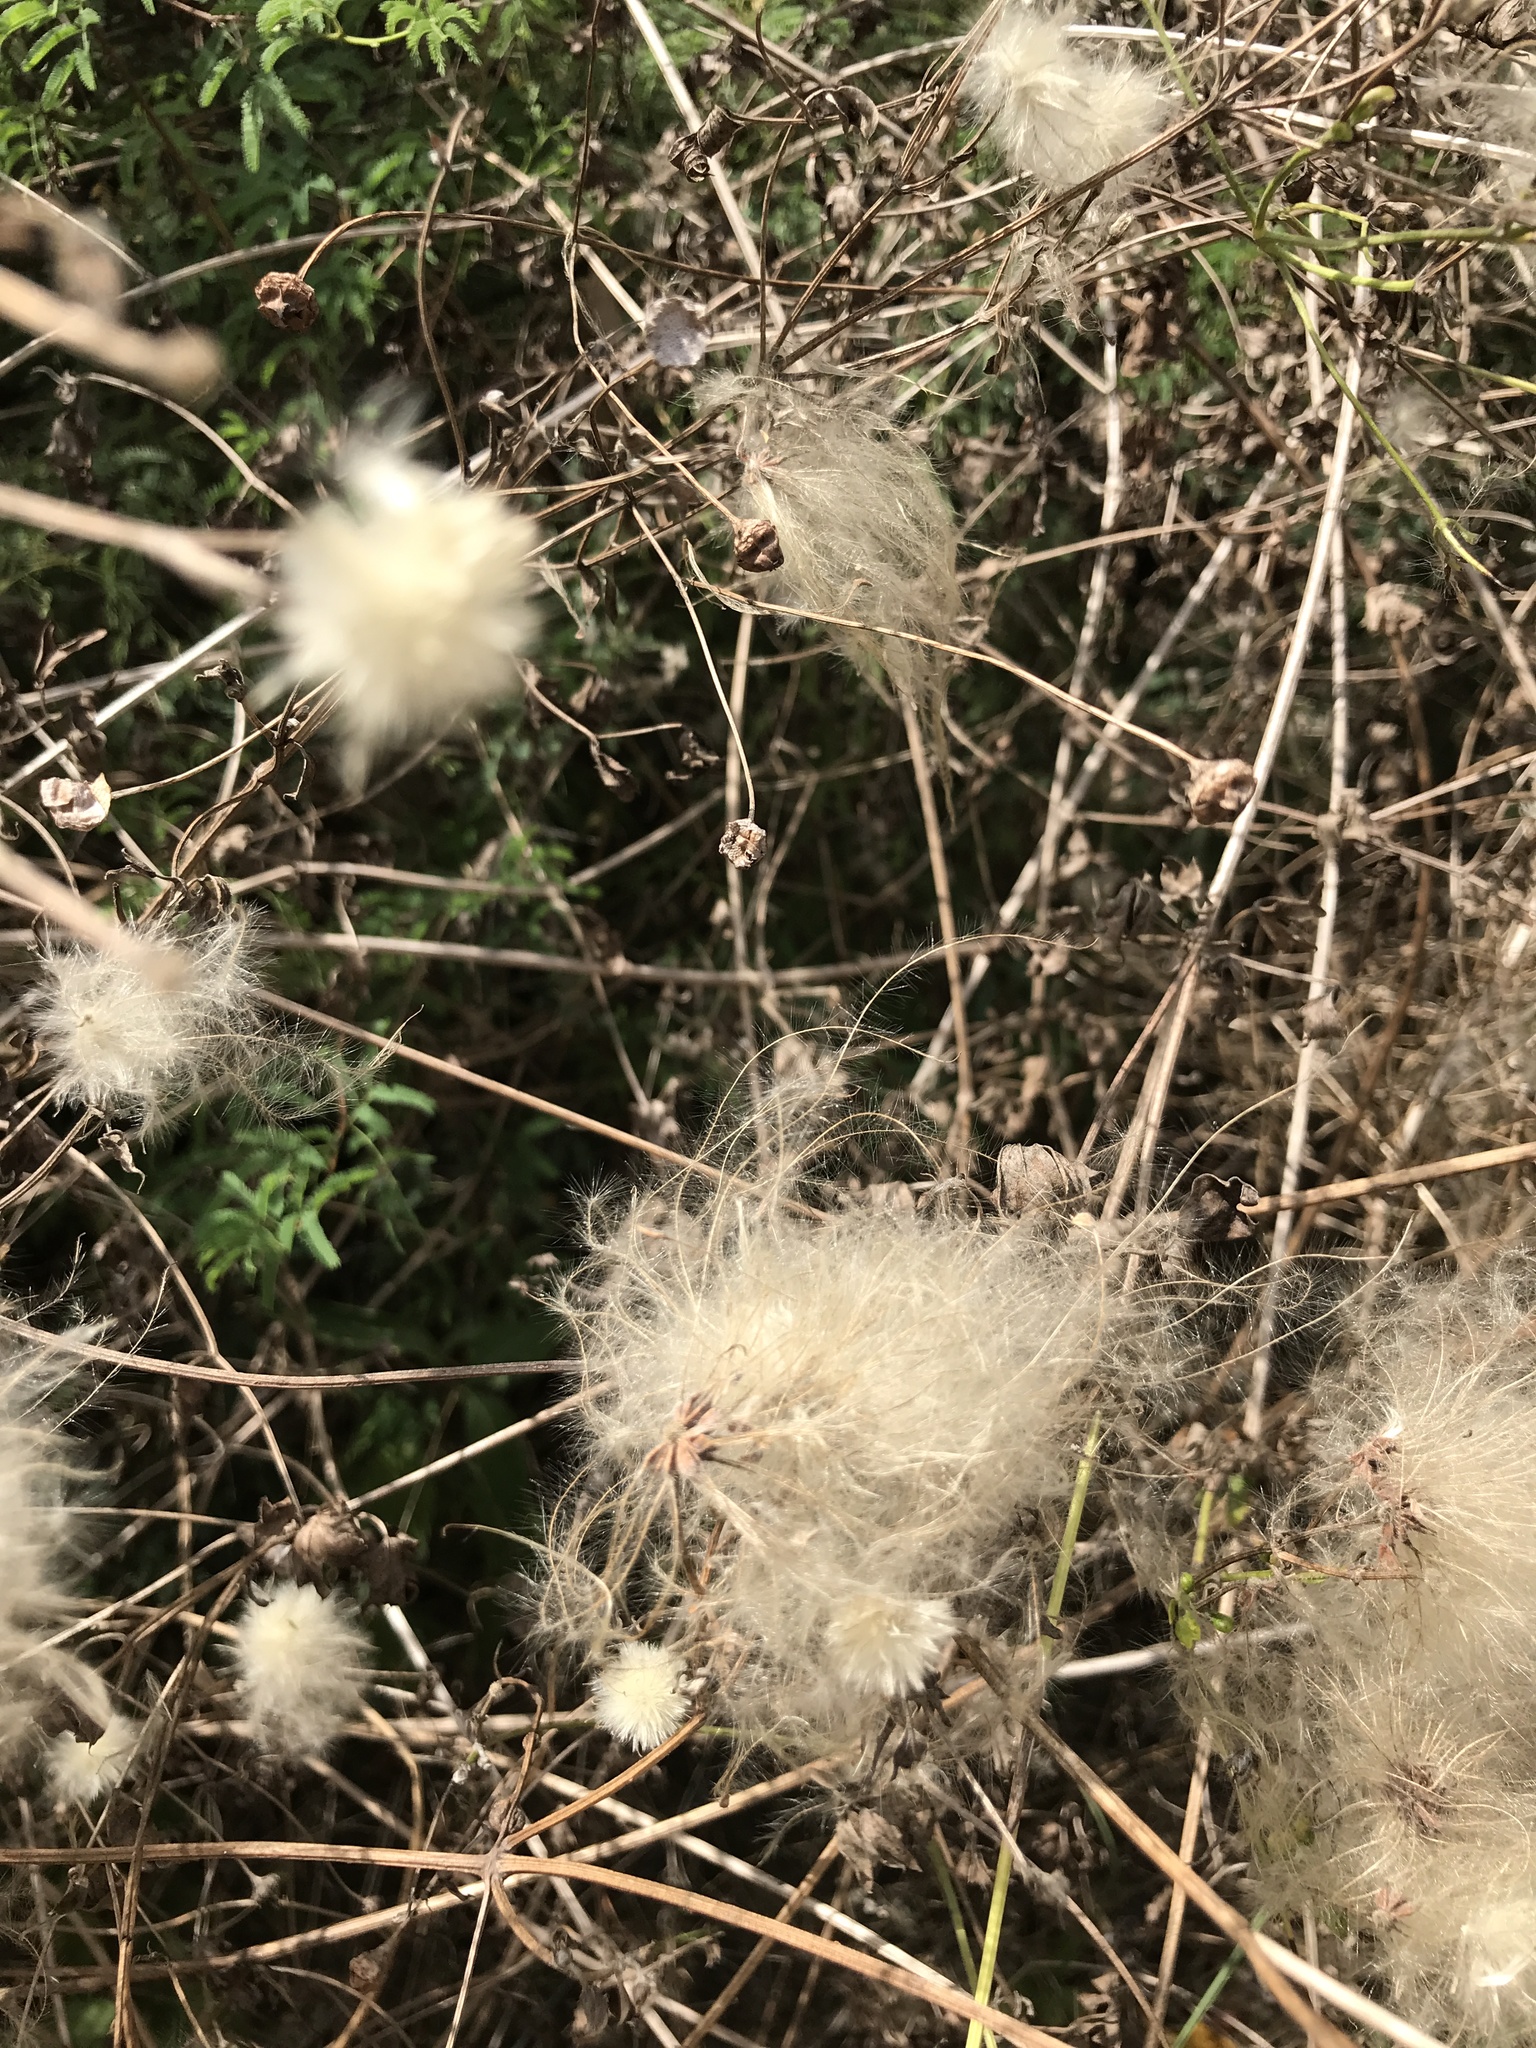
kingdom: Plantae
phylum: Tracheophyta
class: Magnoliopsida
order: Ranunculales
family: Ranunculaceae
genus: Clematis
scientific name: Clematis drummondii
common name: Texas virgin's bower
